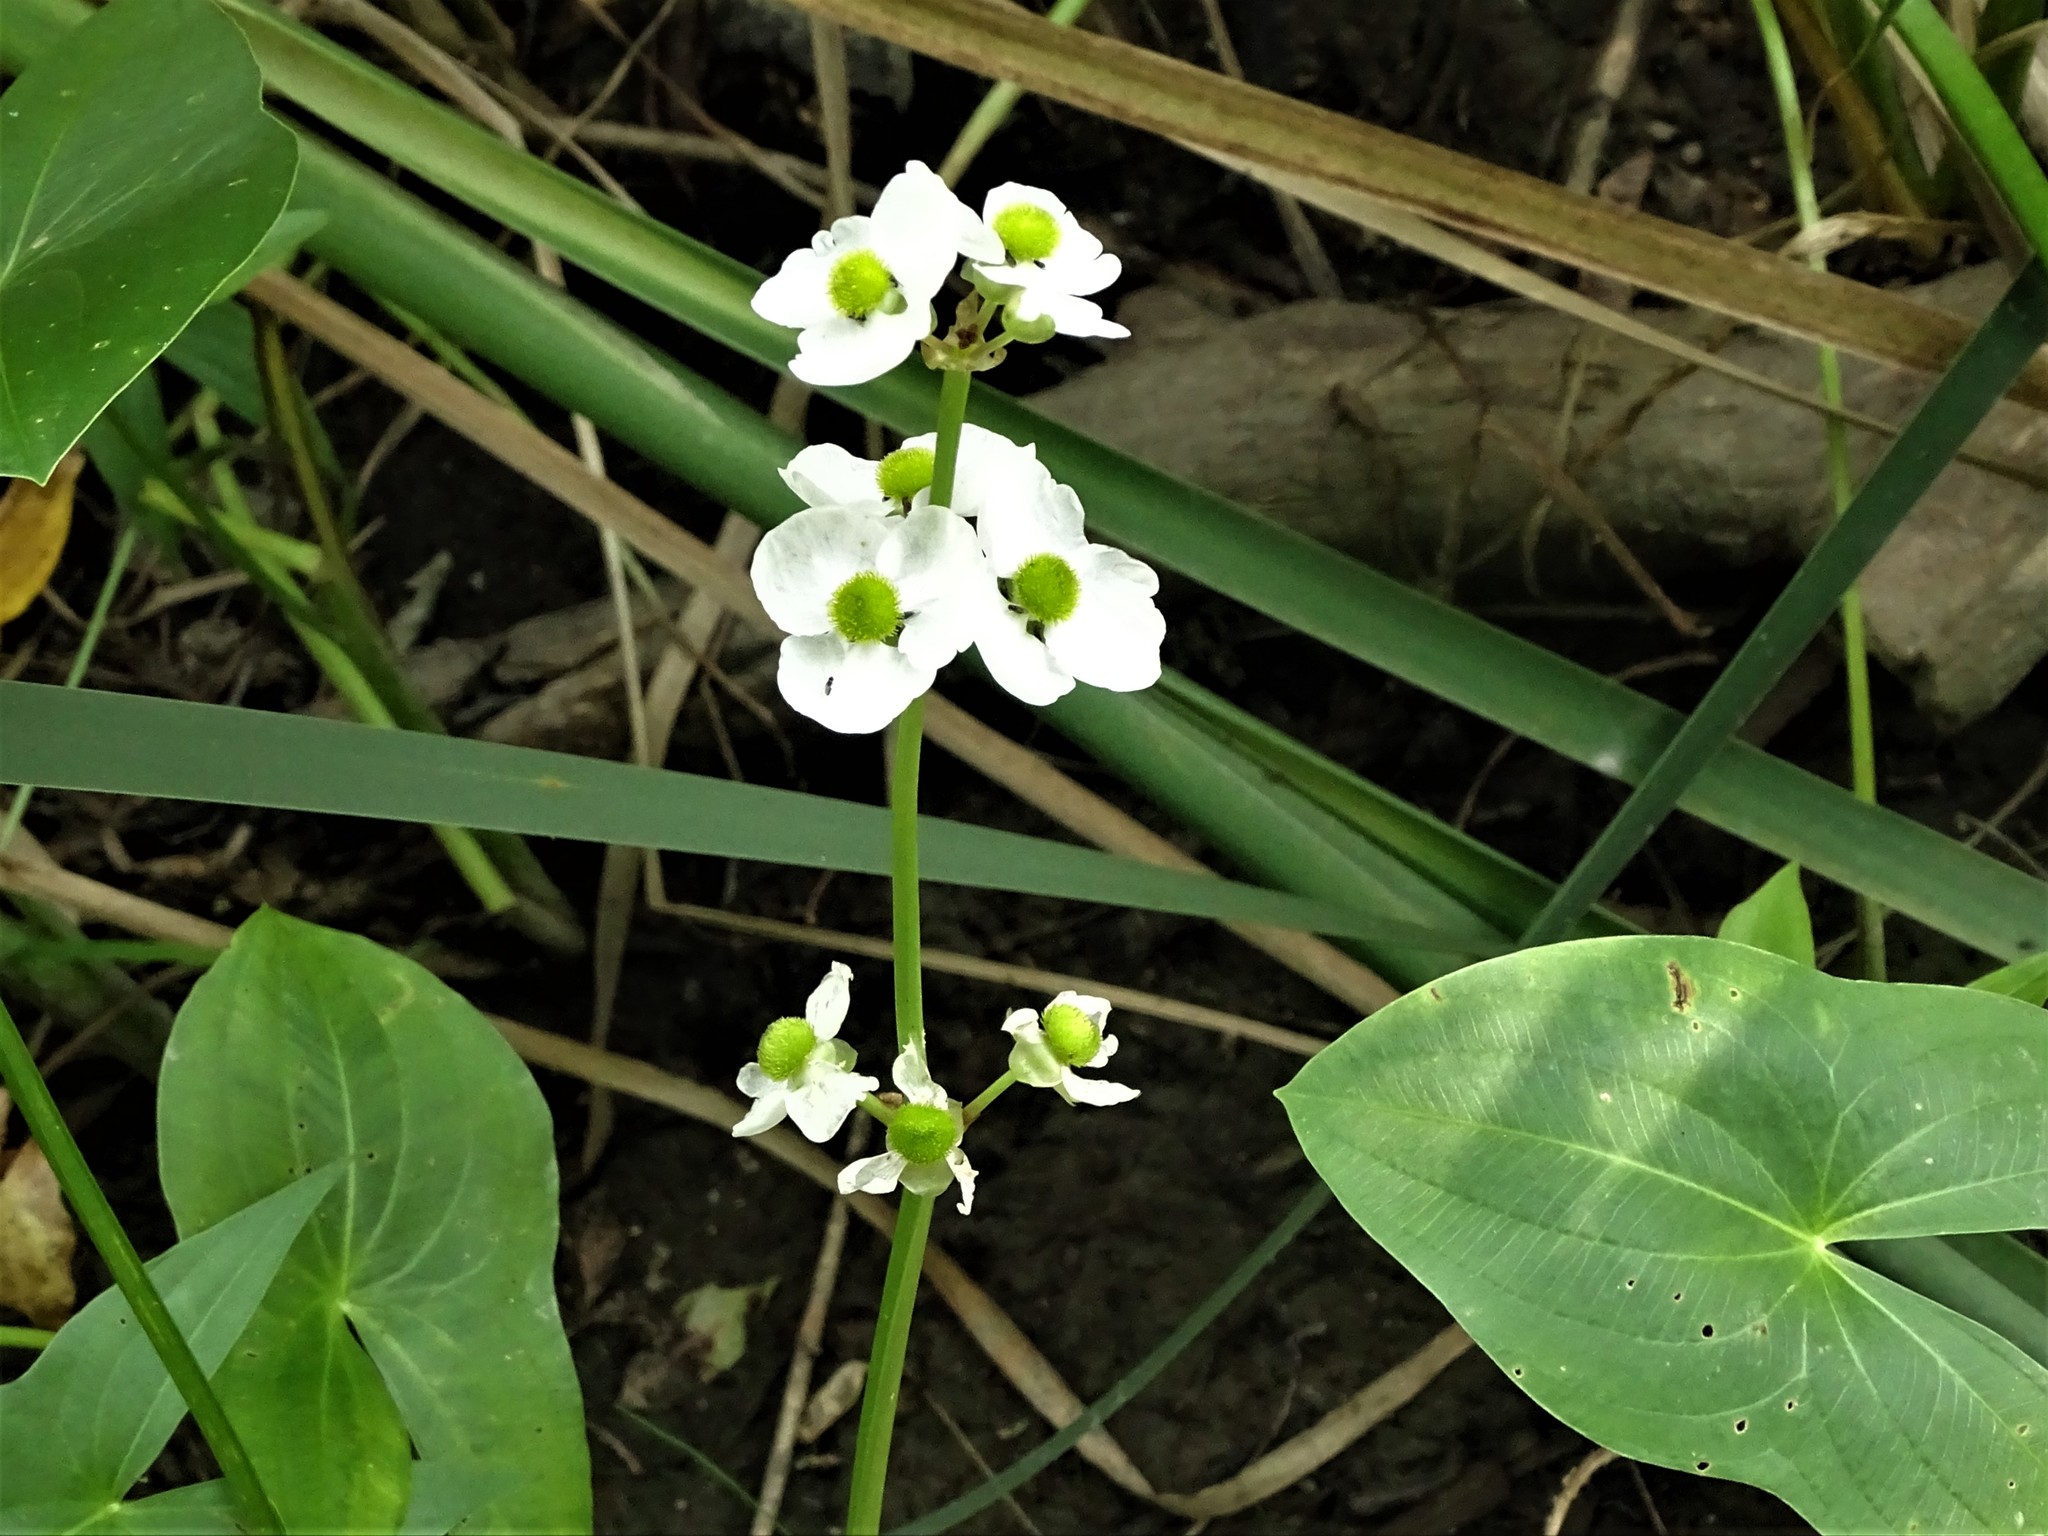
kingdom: Plantae
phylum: Tracheophyta
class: Liliopsida
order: Alismatales
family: Alismataceae
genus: Sagittaria
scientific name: Sagittaria latifolia
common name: Duck-potato
